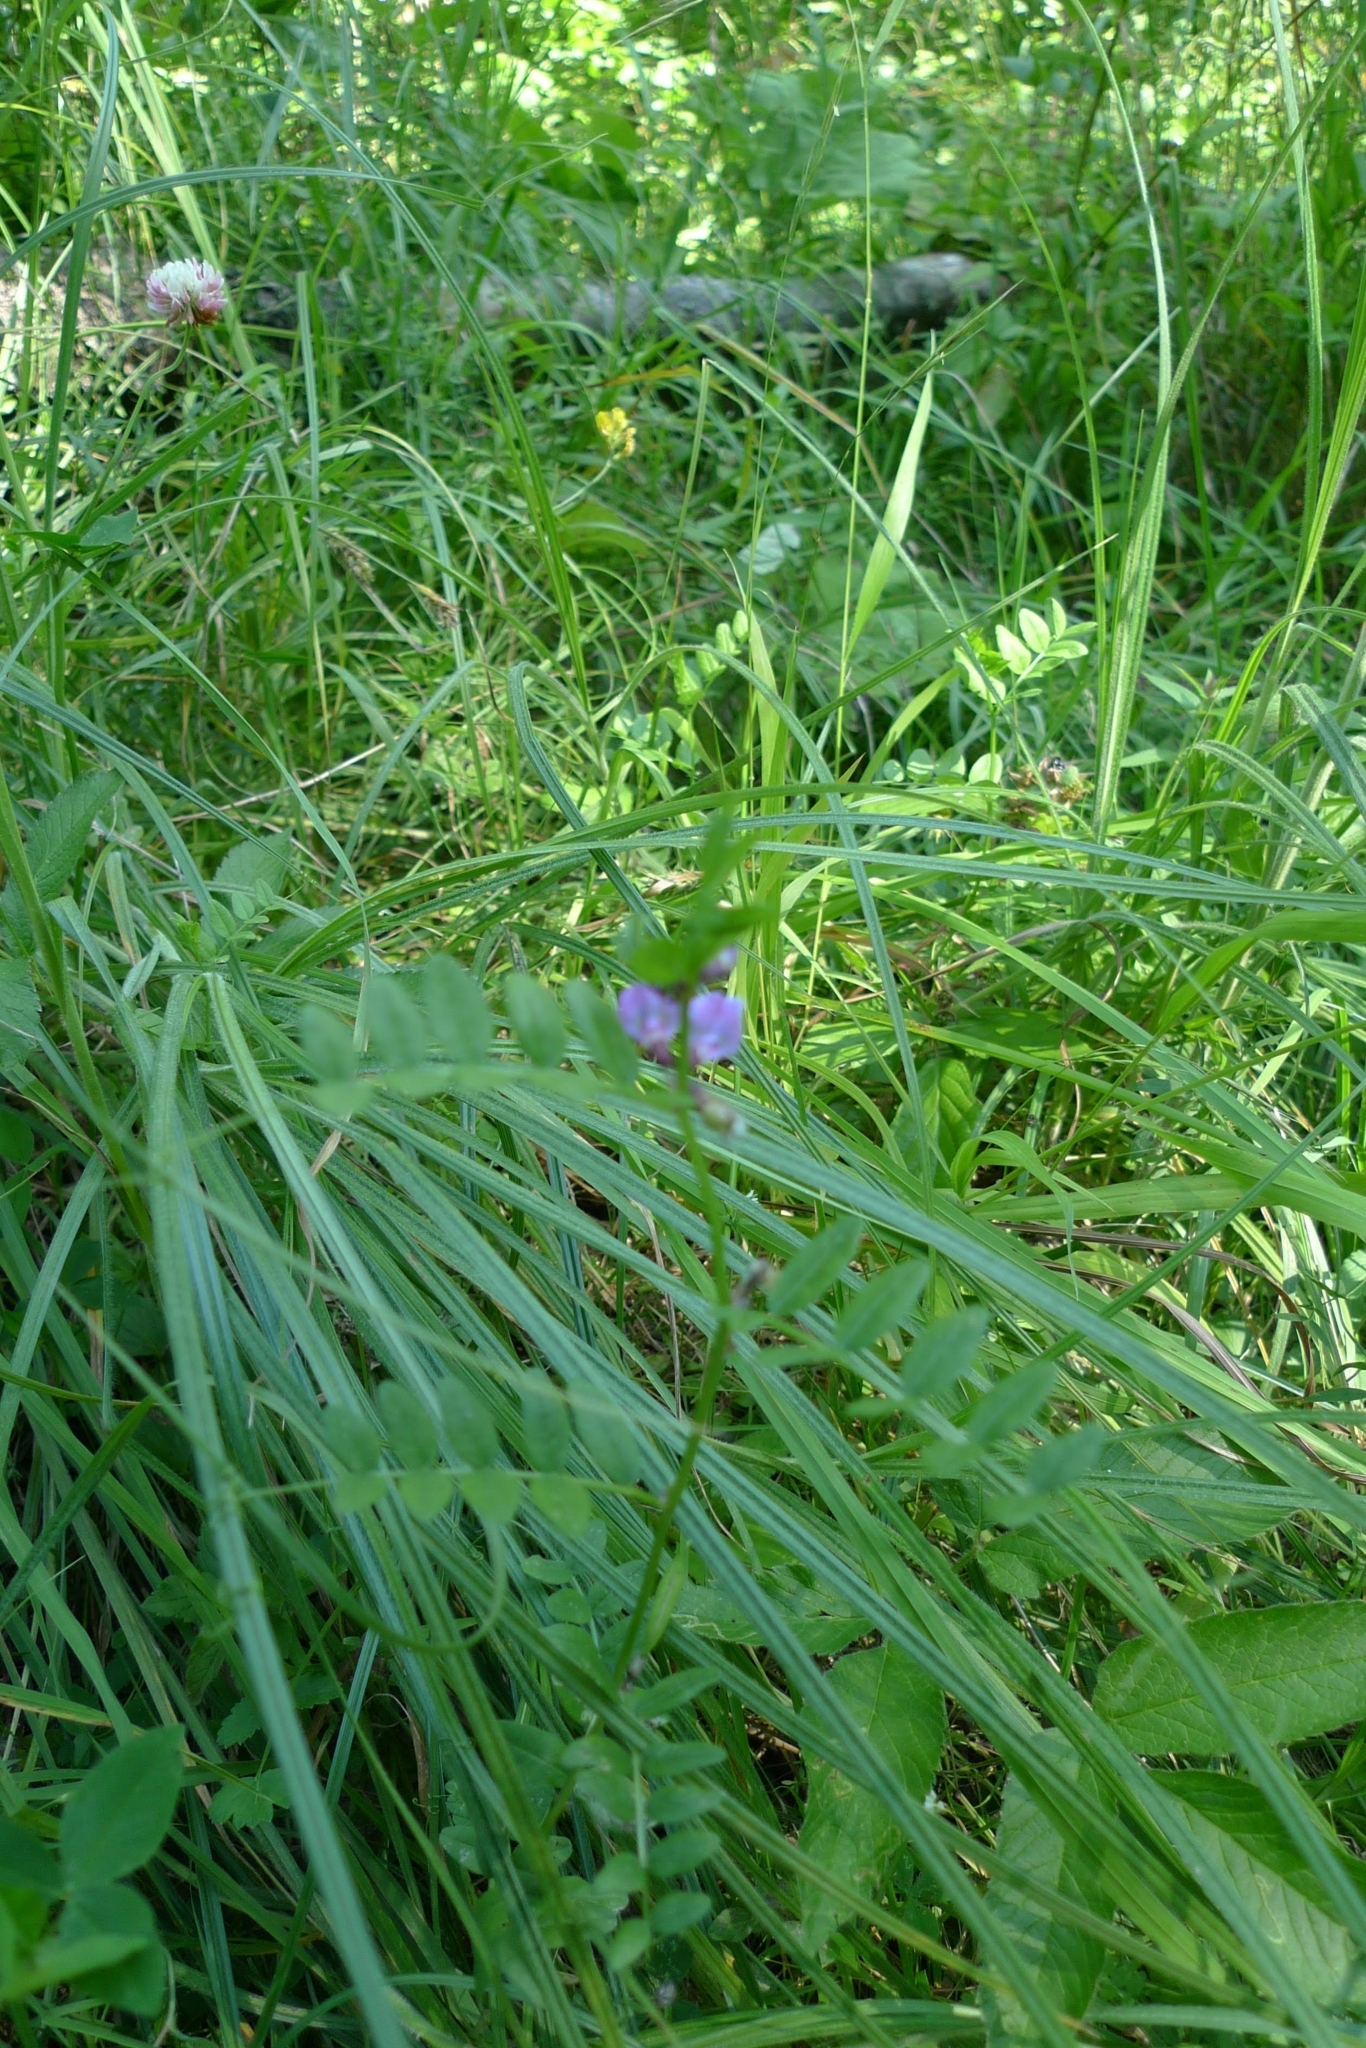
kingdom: Plantae
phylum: Tracheophyta
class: Magnoliopsida
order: Fabales
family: Fabaceae
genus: Vicia
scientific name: Vicia sepium
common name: Bush vetch
